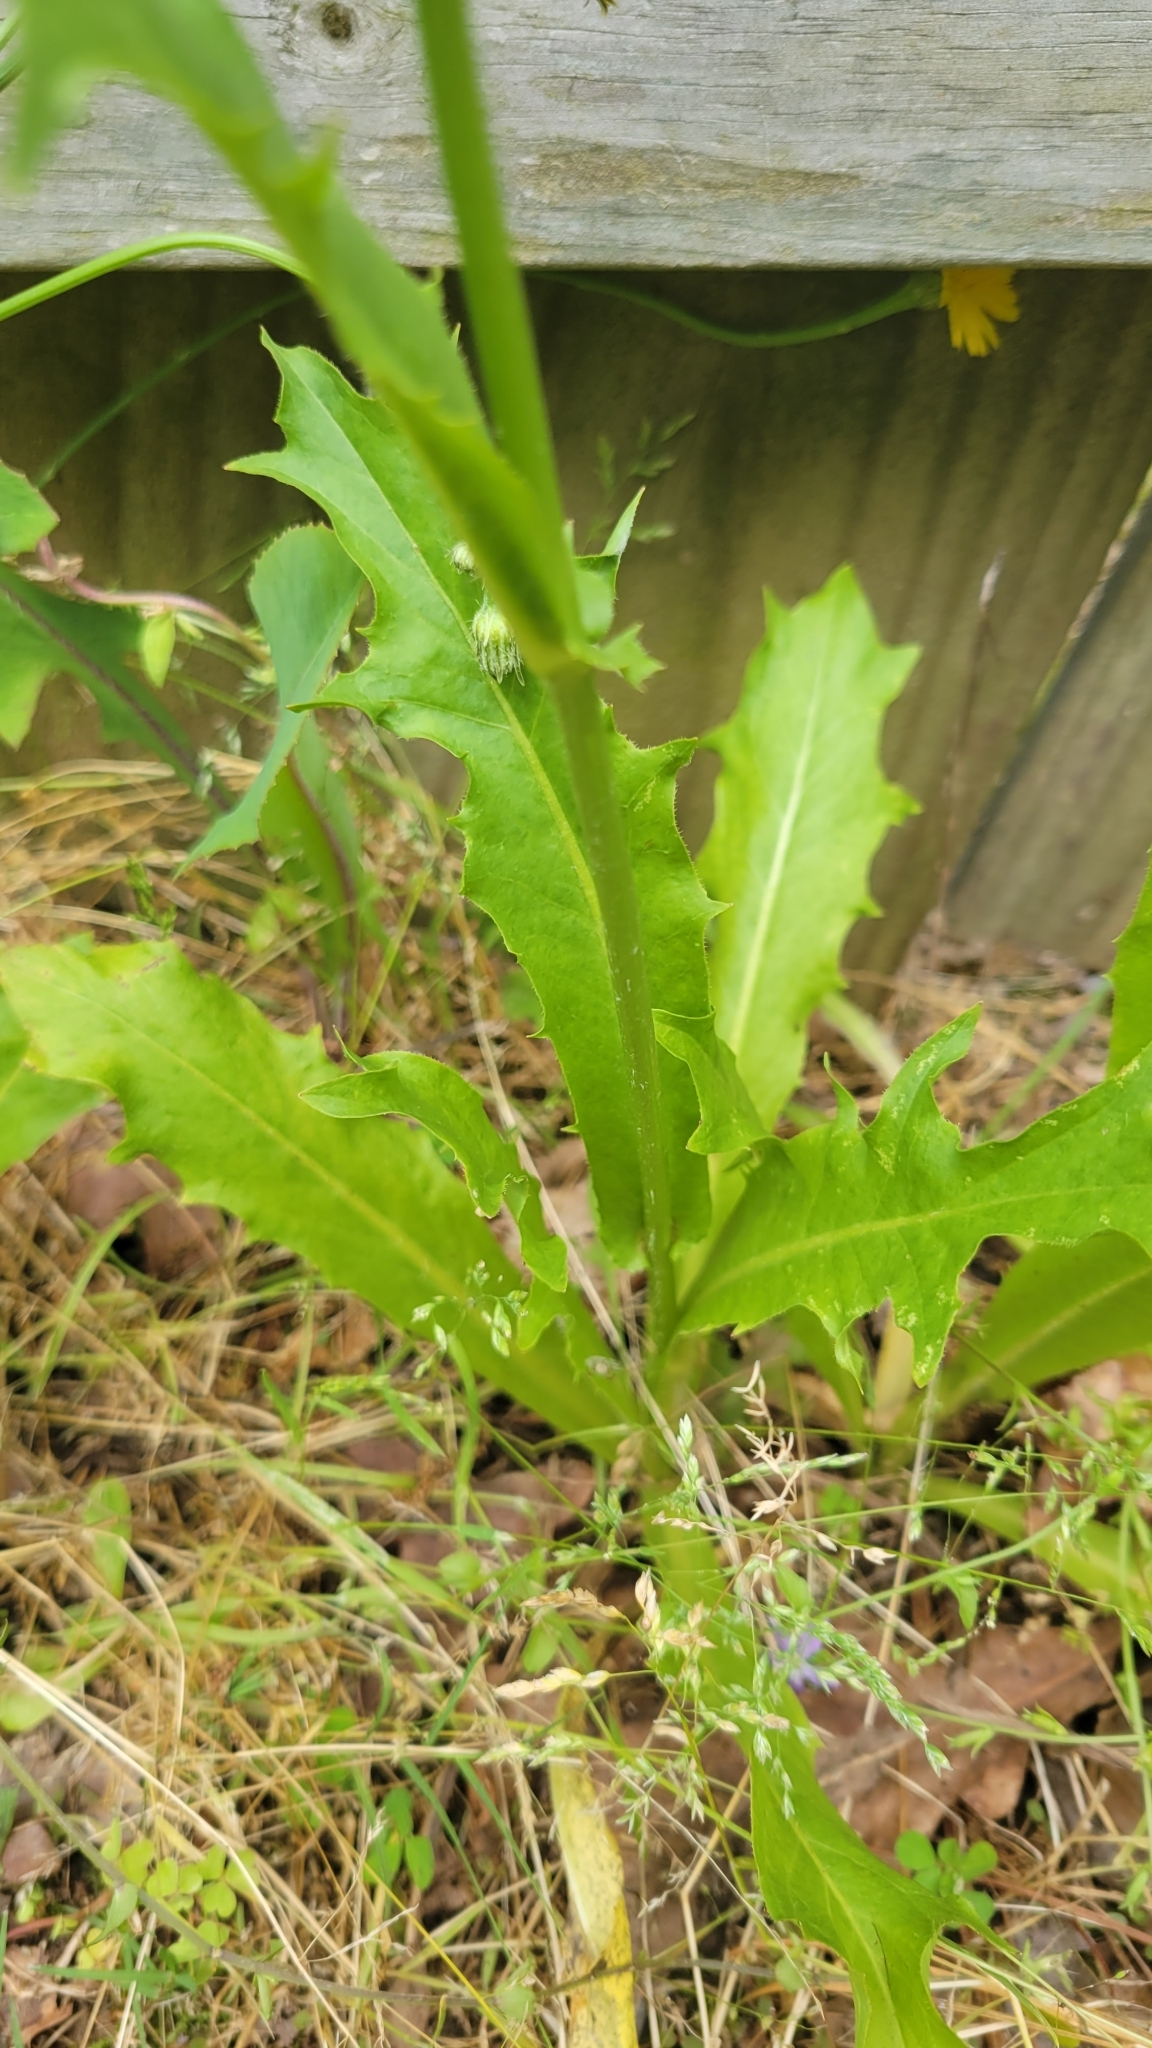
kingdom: Plantae
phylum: Tracheophyta
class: Magnoliopsida
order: Asterales
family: Asteraceae
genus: Hypochaeris
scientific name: Hypochaeris chillensis
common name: Brazilian cat's ear
